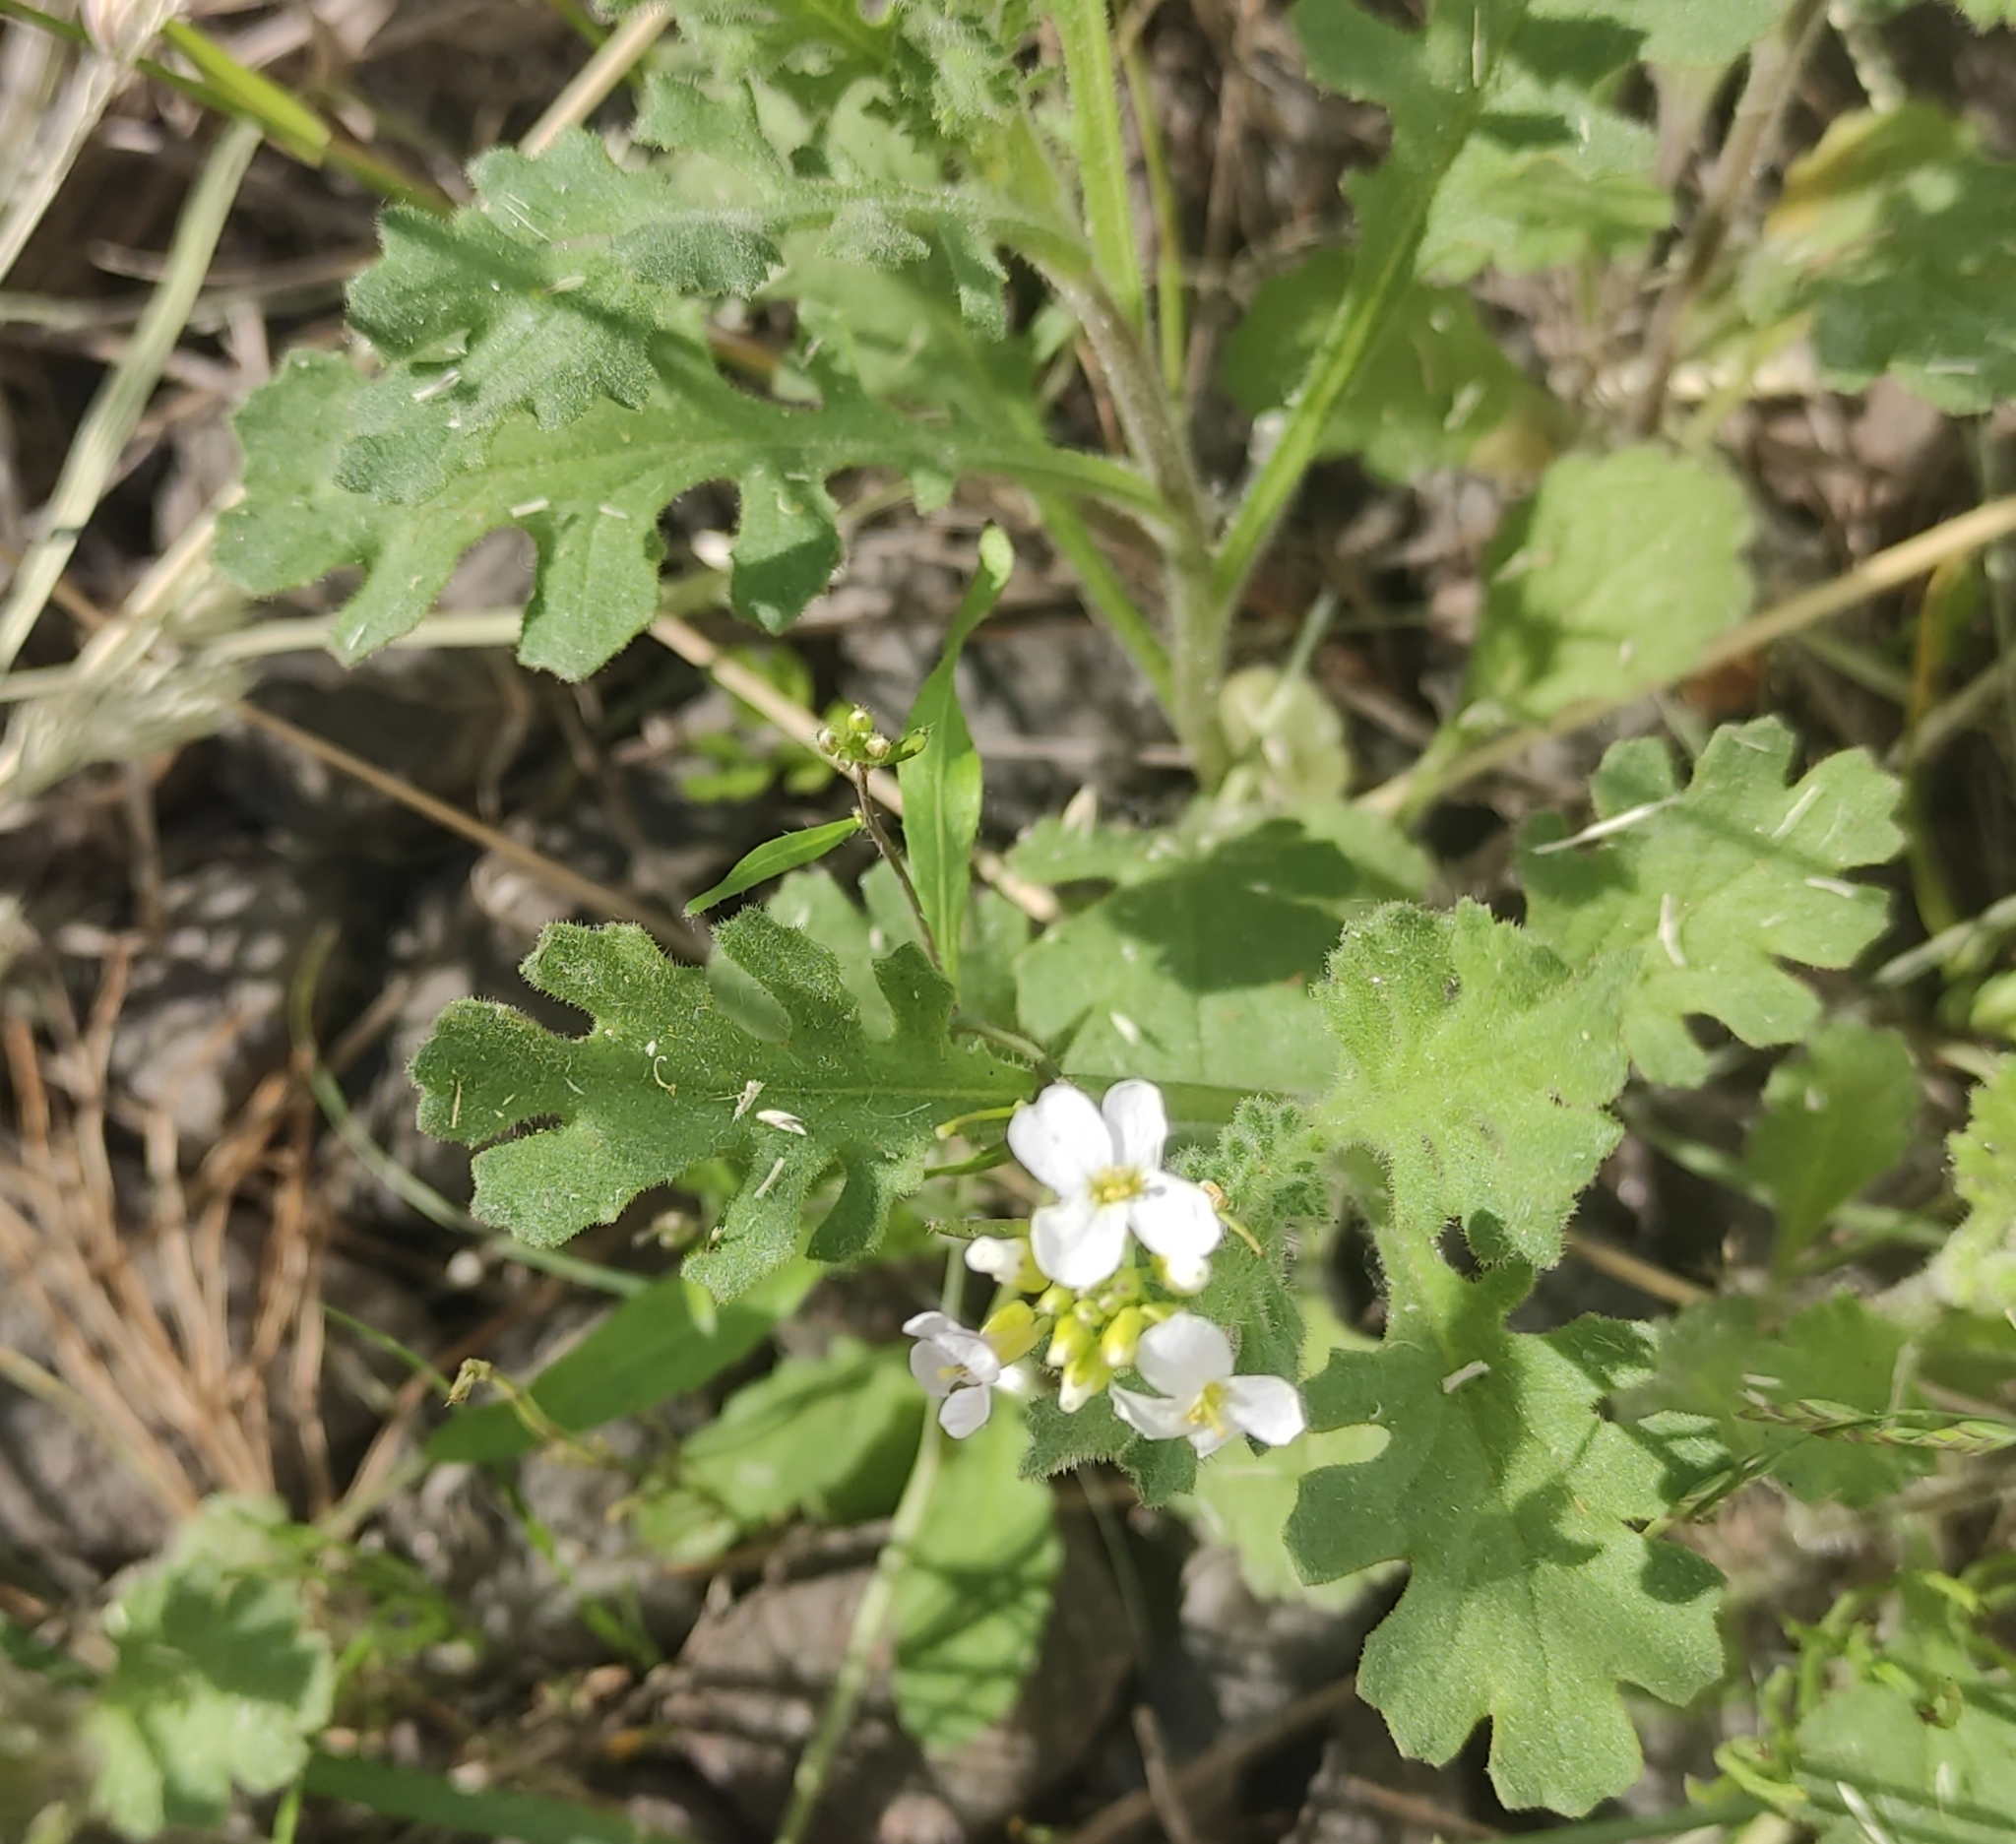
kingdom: Plantae
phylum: Tracheophyta
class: Magnoliopsida
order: Brassicales
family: Brassicaceae
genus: Arabidopsis
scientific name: Arabidopsis arenosa
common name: Sand rock-cress
